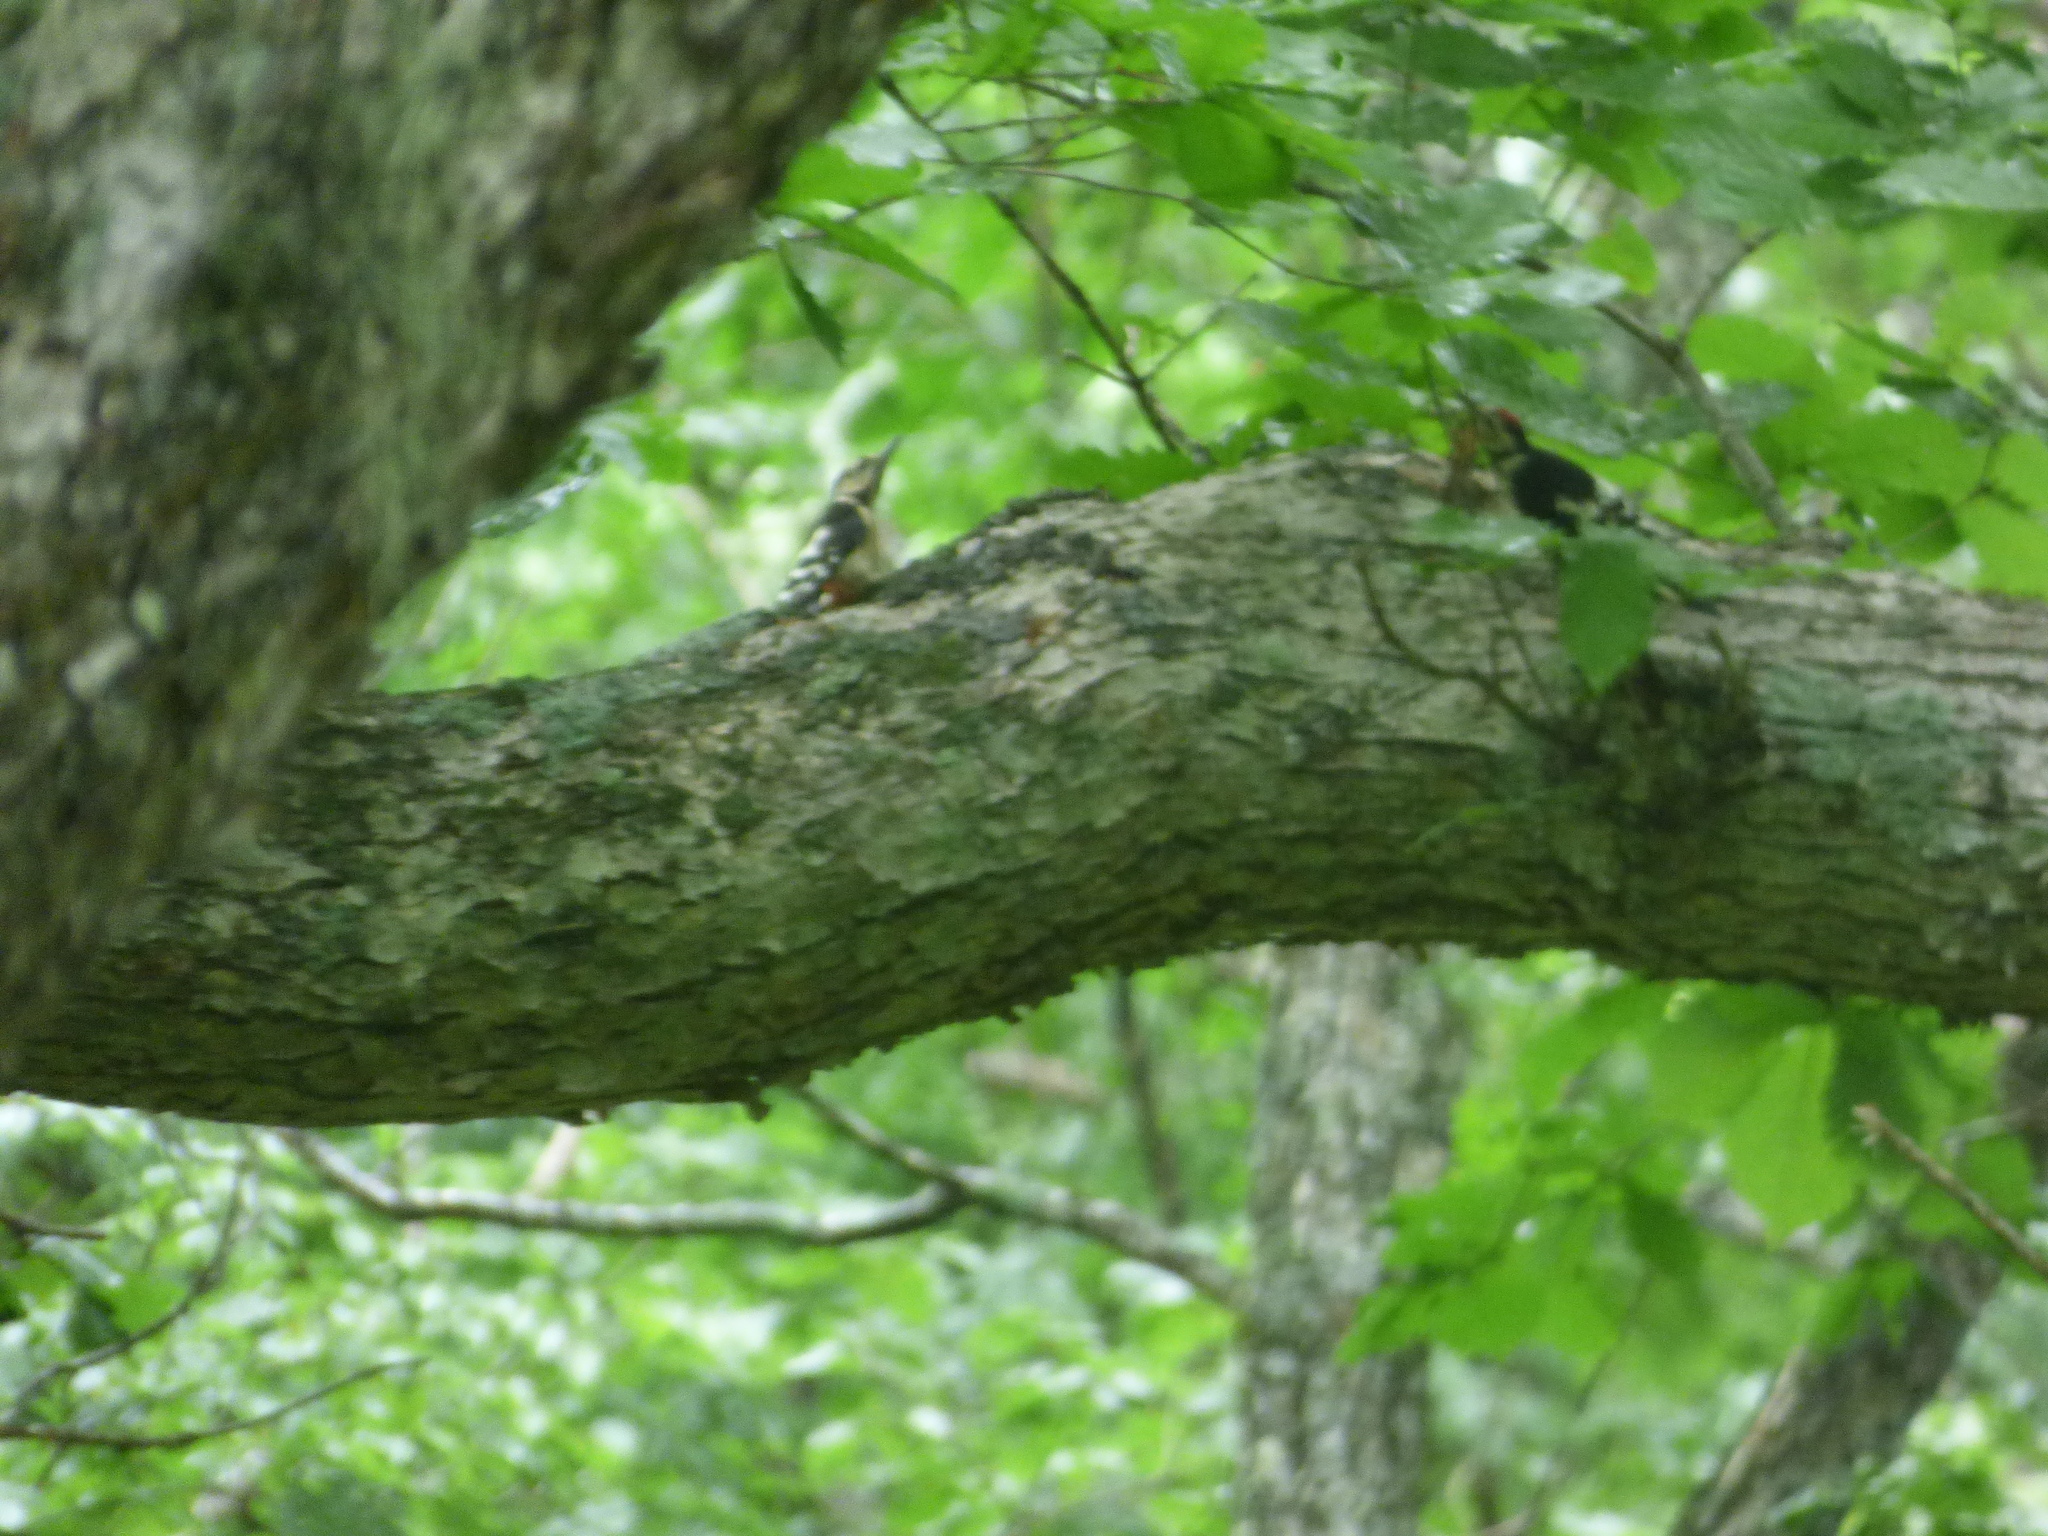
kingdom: Animalia
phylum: Chordata
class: Aves
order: Piciformes
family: Picidae
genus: Dendrocopos
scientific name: Dendrocopos major
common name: Great spotted woodpecker
